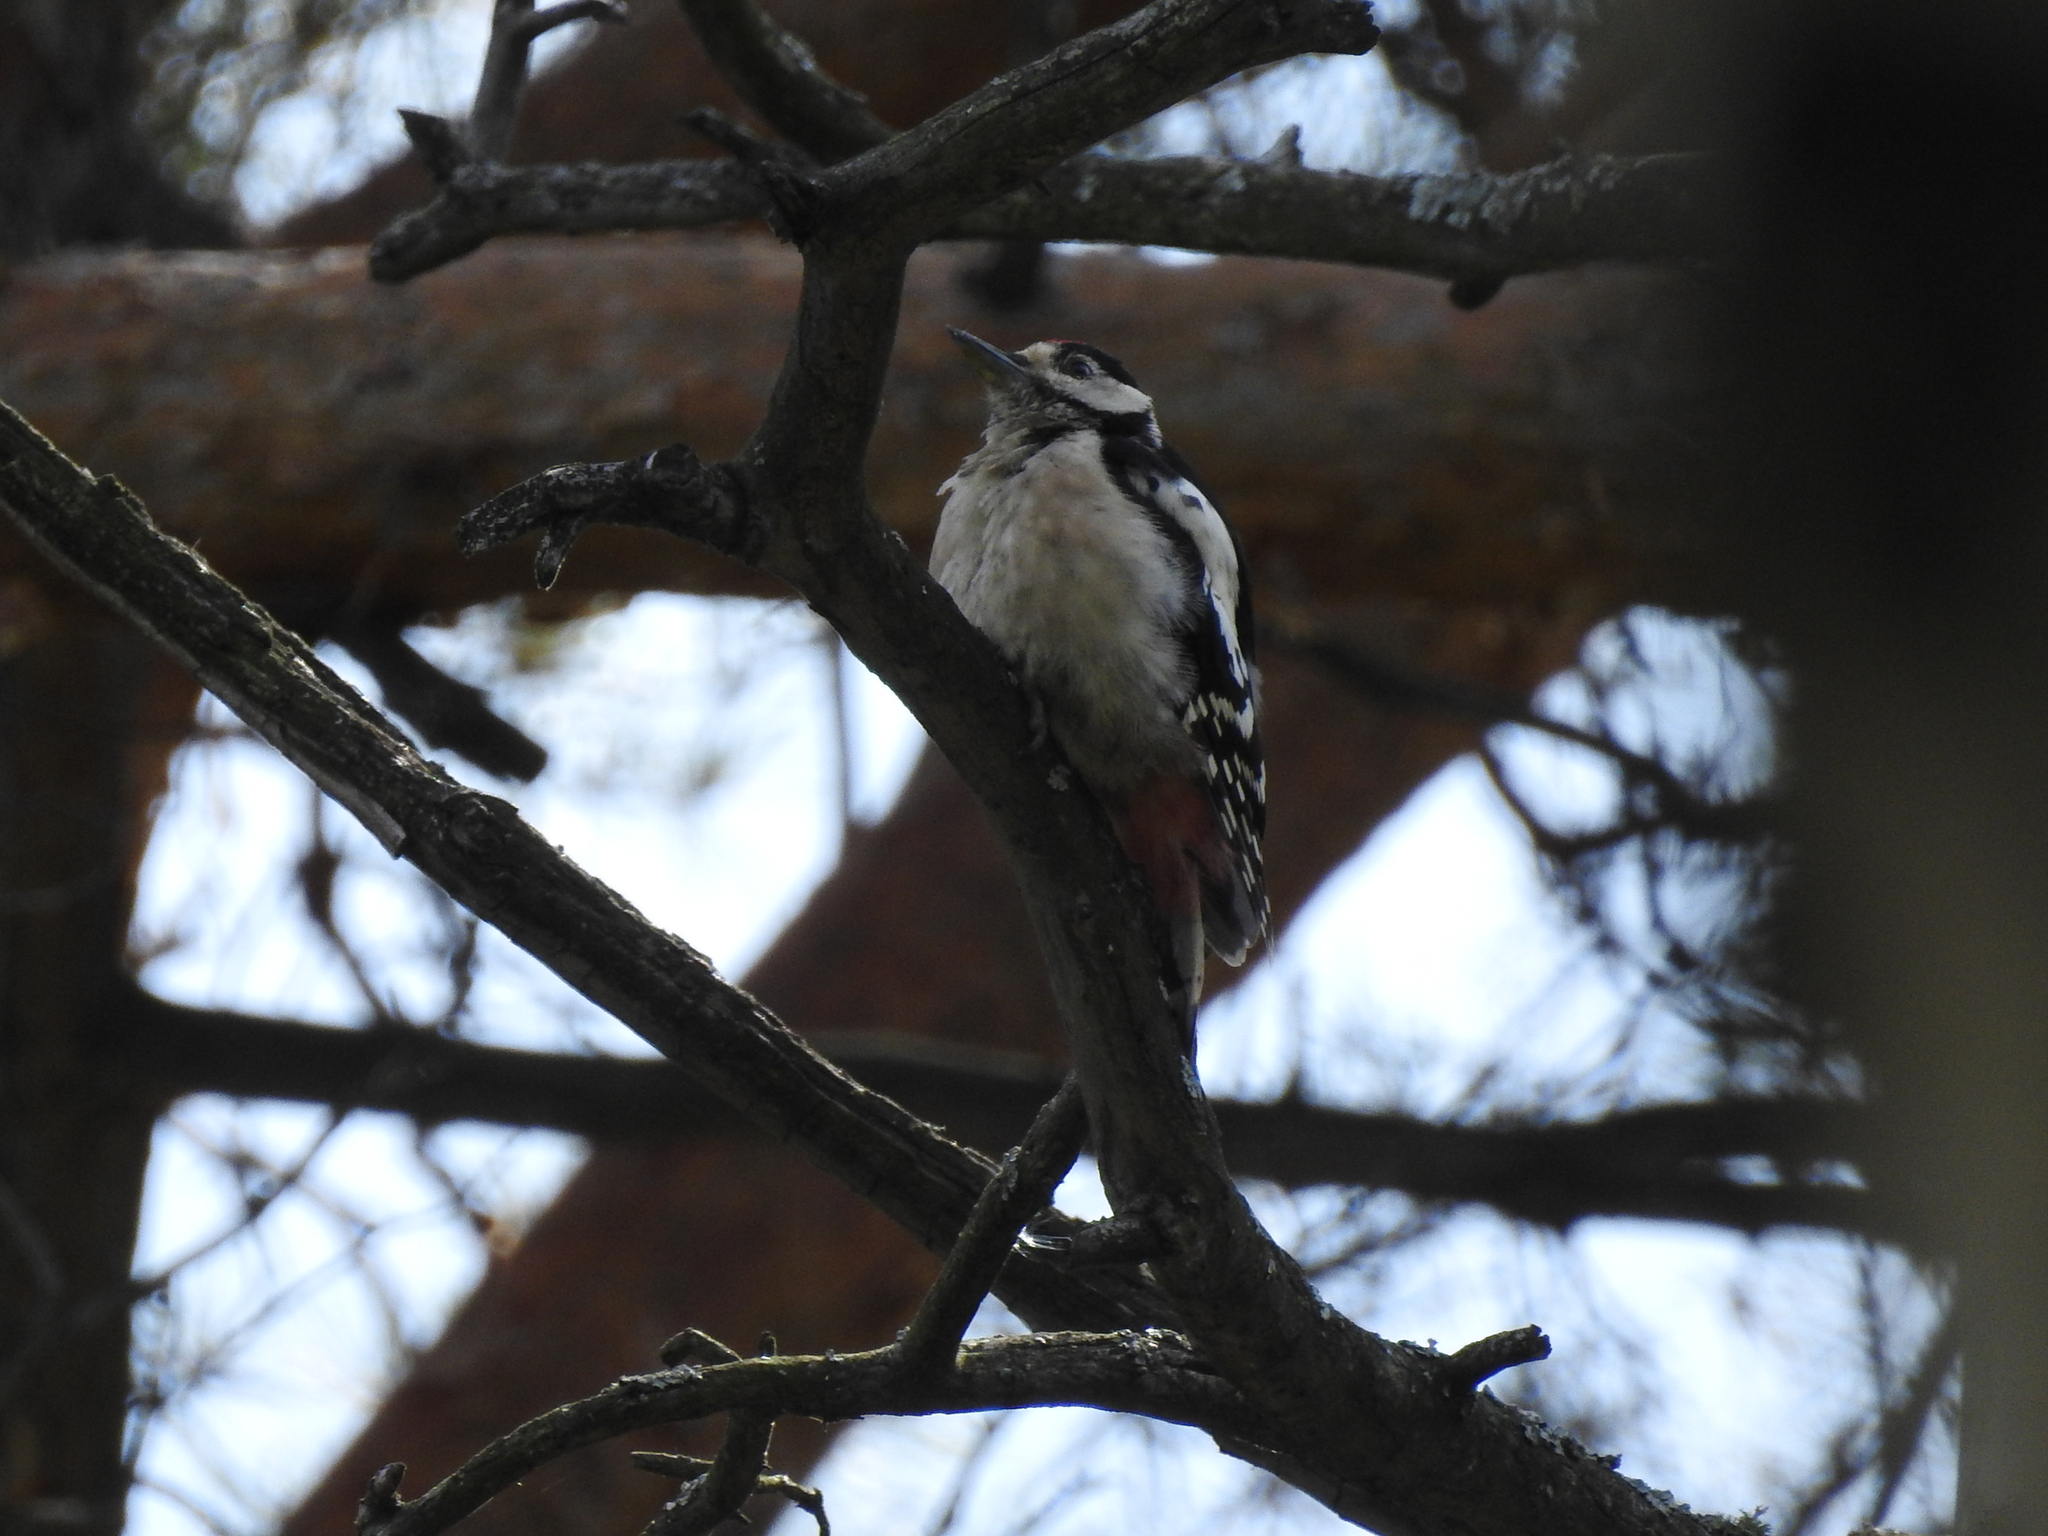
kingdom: Animalia
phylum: Chordata
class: Aves
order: Piciformes
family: Picidae
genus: Dendrocopos
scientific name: Dendrocopos major
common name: Great spotted woodpecker
